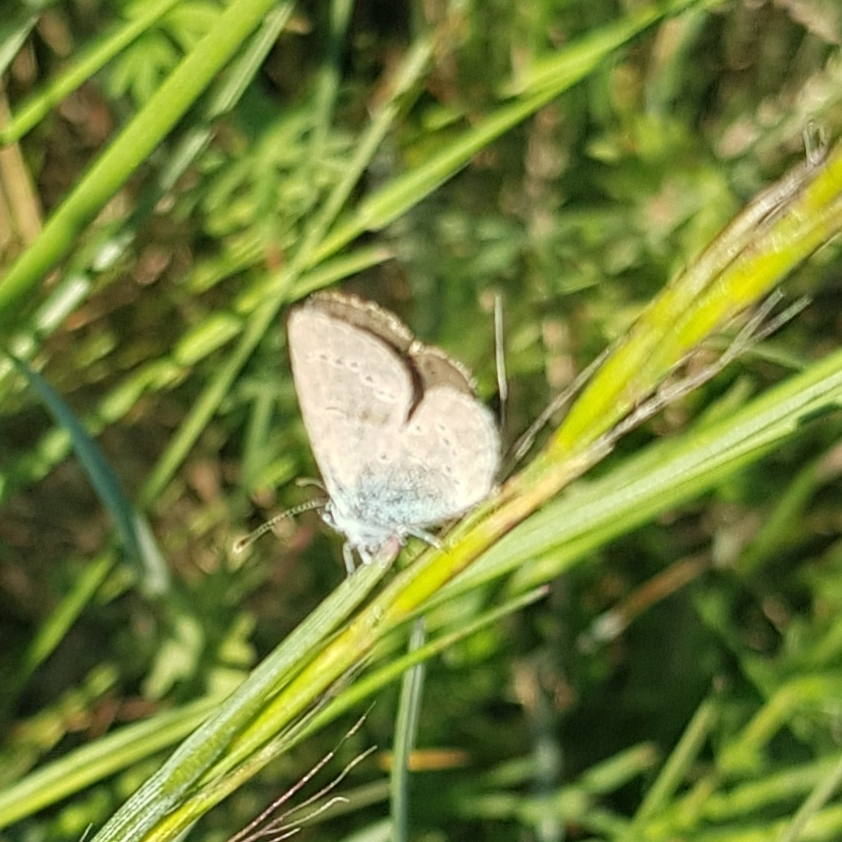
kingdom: Animalia
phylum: Arthropoda
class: Insecta
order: Lepidoptera
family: Lycaenidae
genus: Cupido
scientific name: Cupido minimus
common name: Small blue
